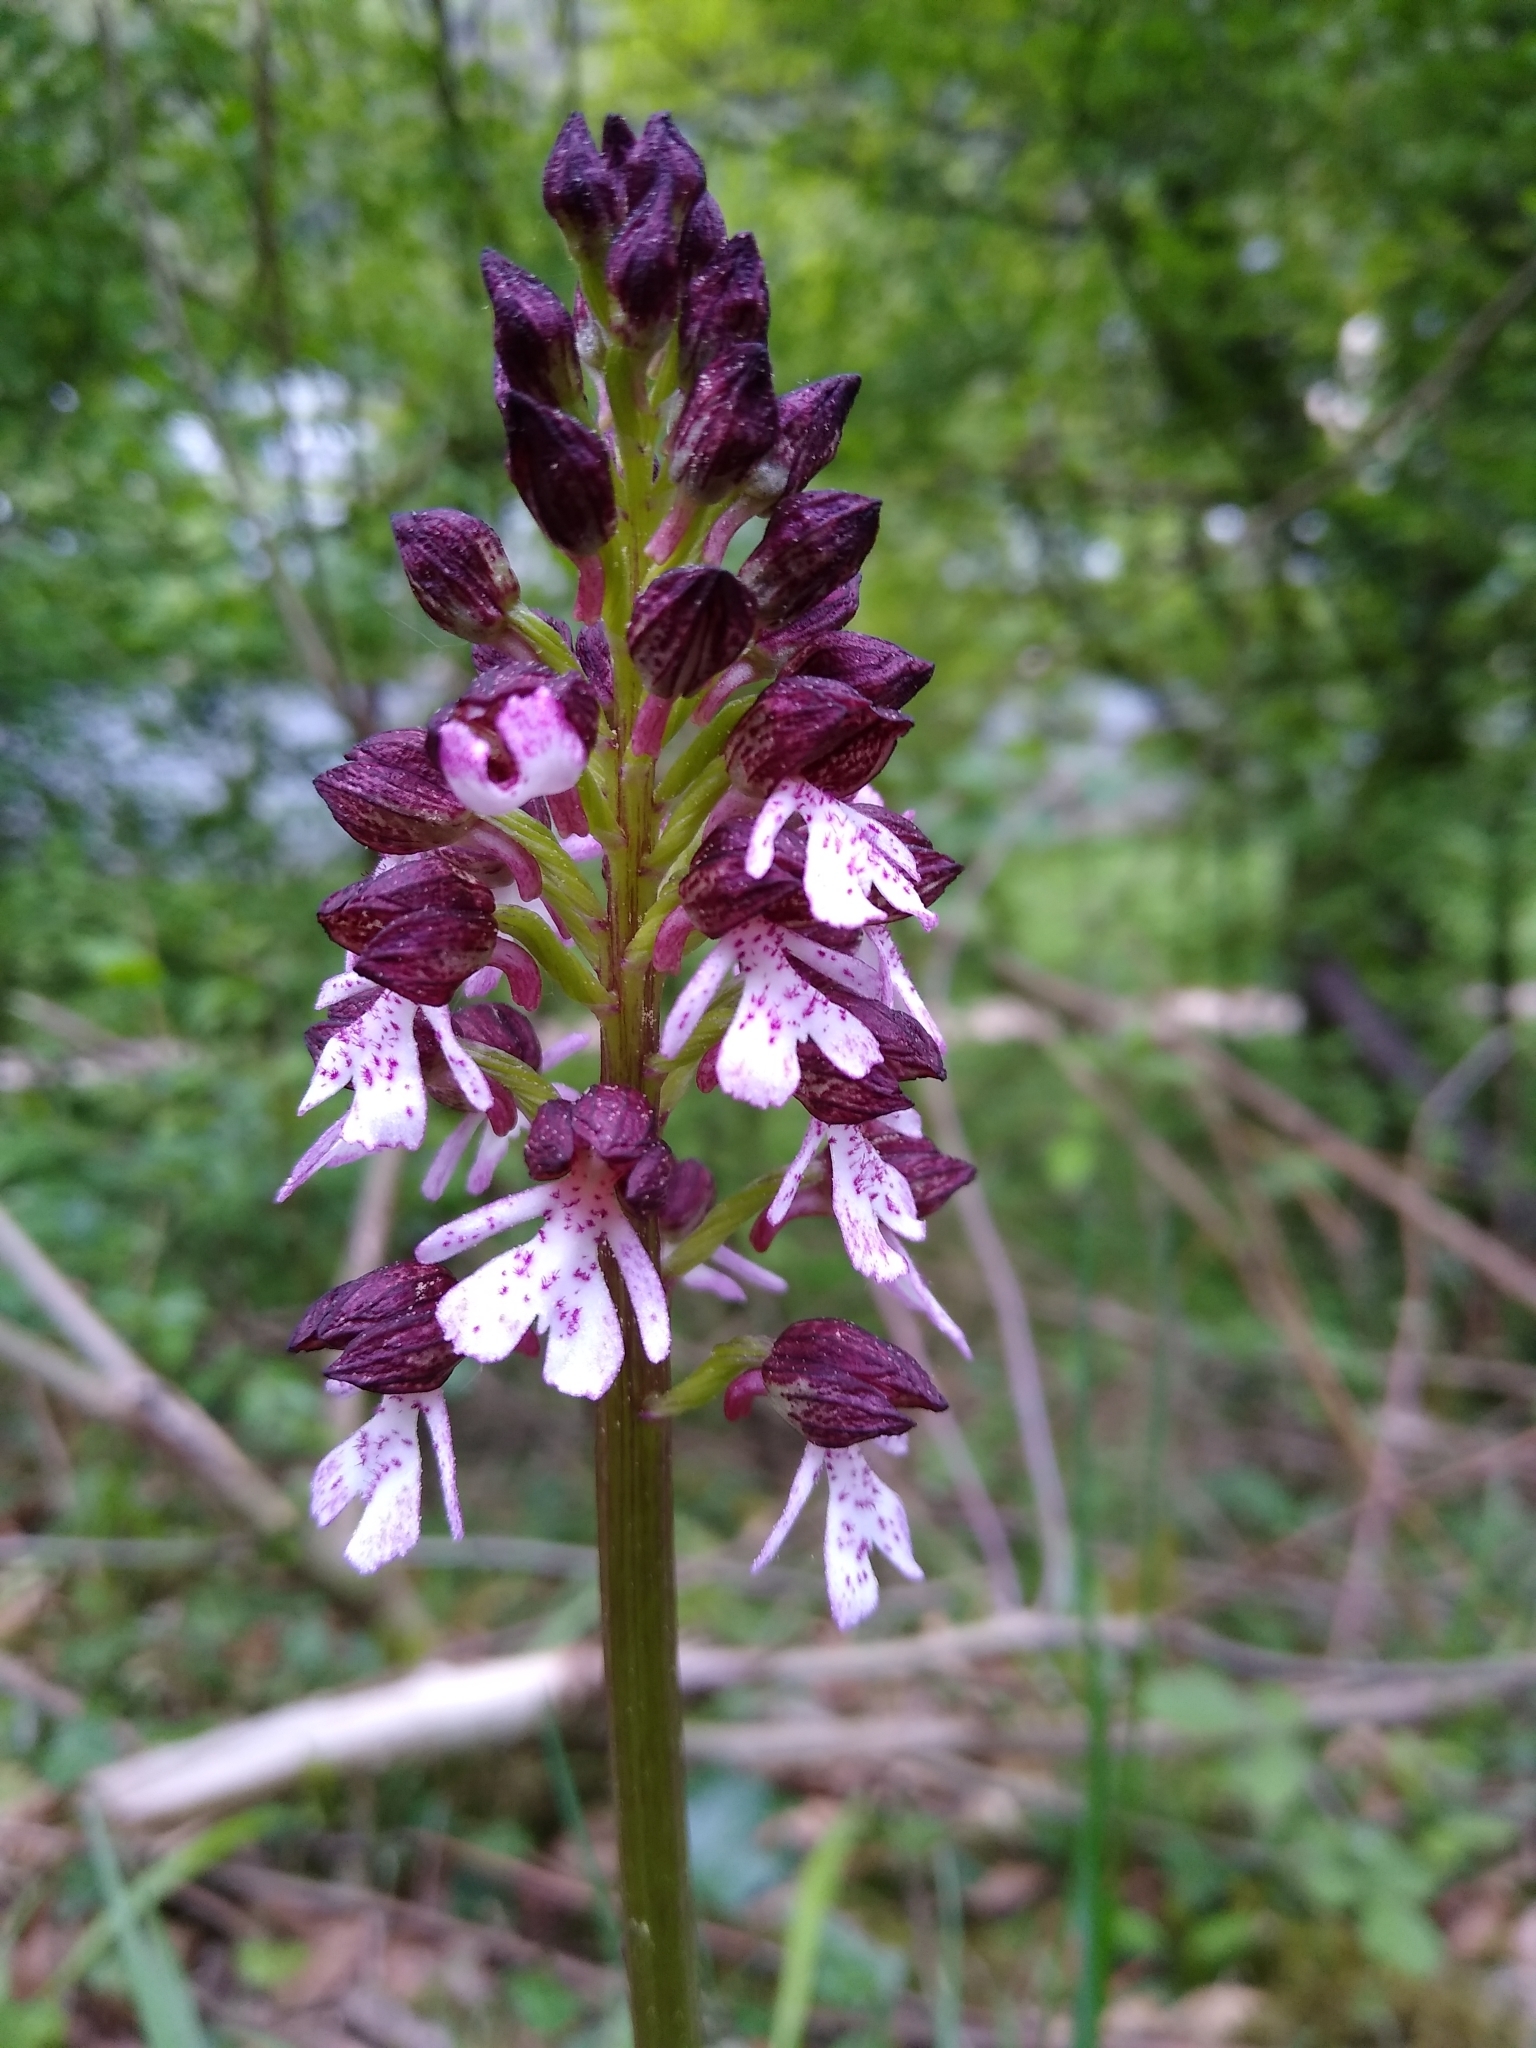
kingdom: Plantae
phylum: Tracheophyta
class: Liliopsida
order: Asparagales
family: Orchidaceae
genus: Orchis
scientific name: Orchis purpurea
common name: Lady orchid
